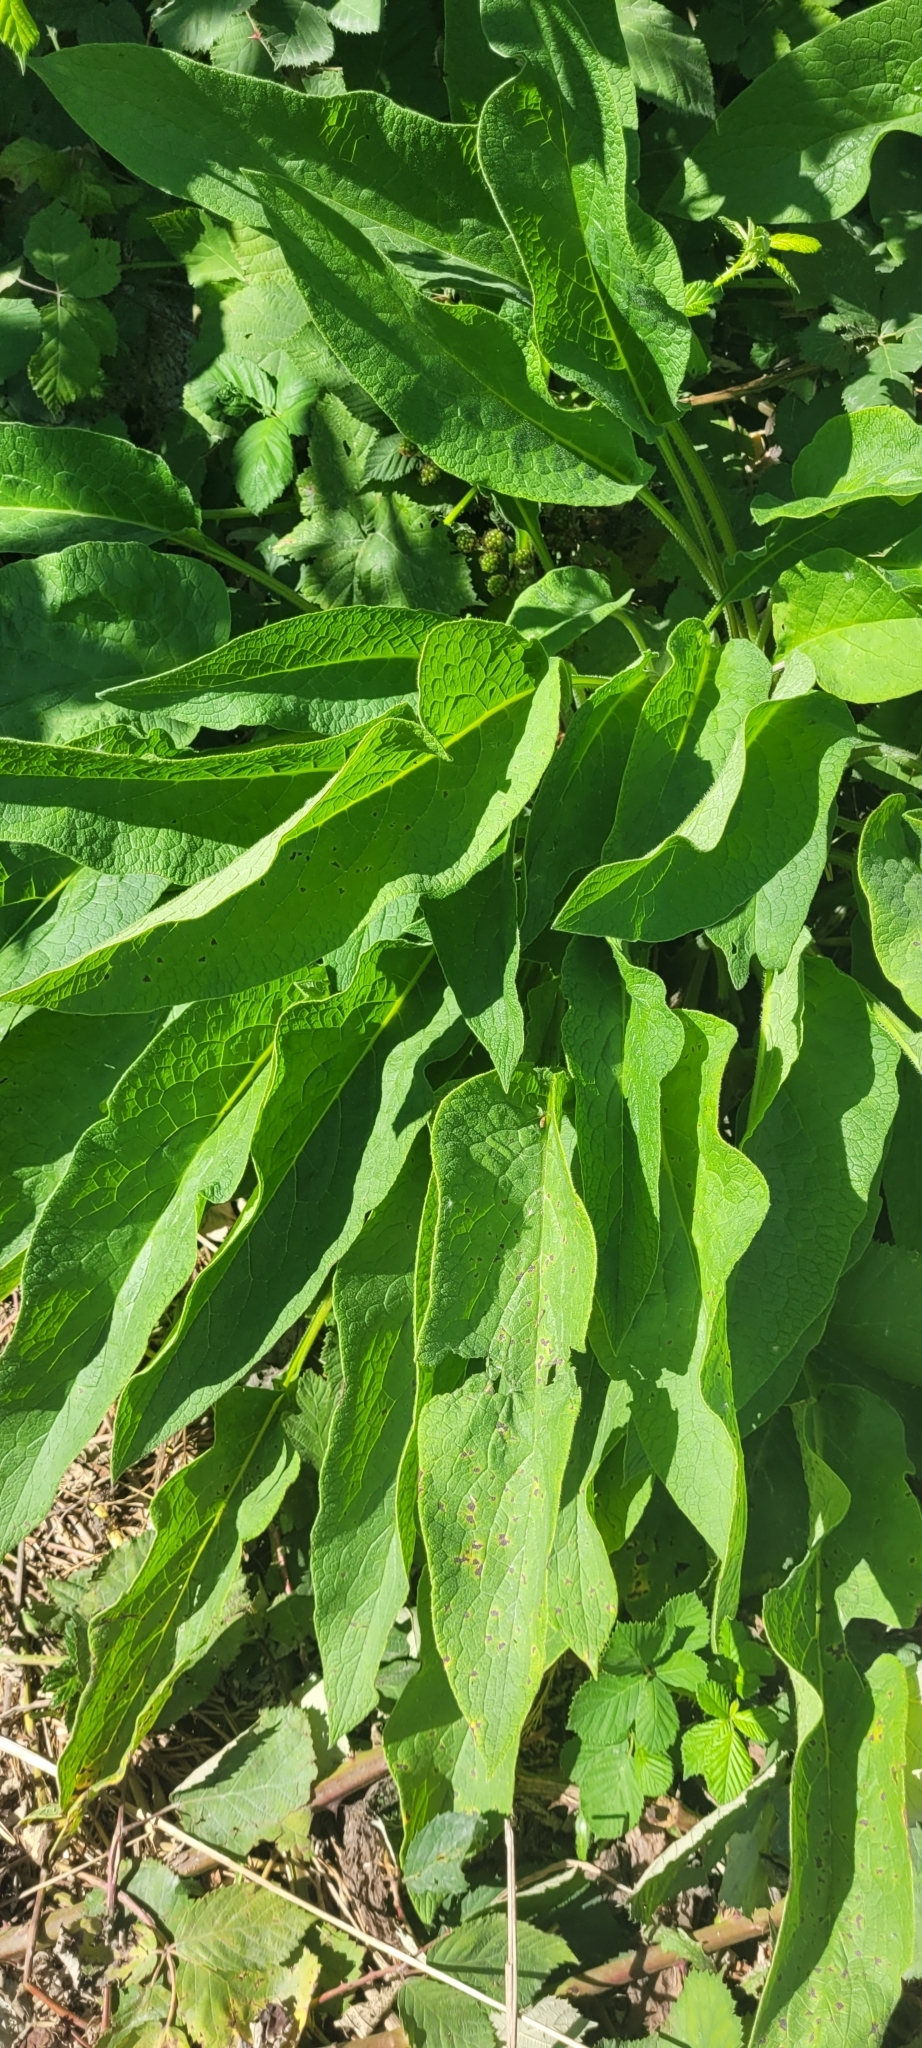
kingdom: Plantae
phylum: Tracheophyta
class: Magnoliopsida
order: Boraginales
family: Boraginaceae
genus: Symphytum
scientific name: Symphytum officinale
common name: Common comfrey
